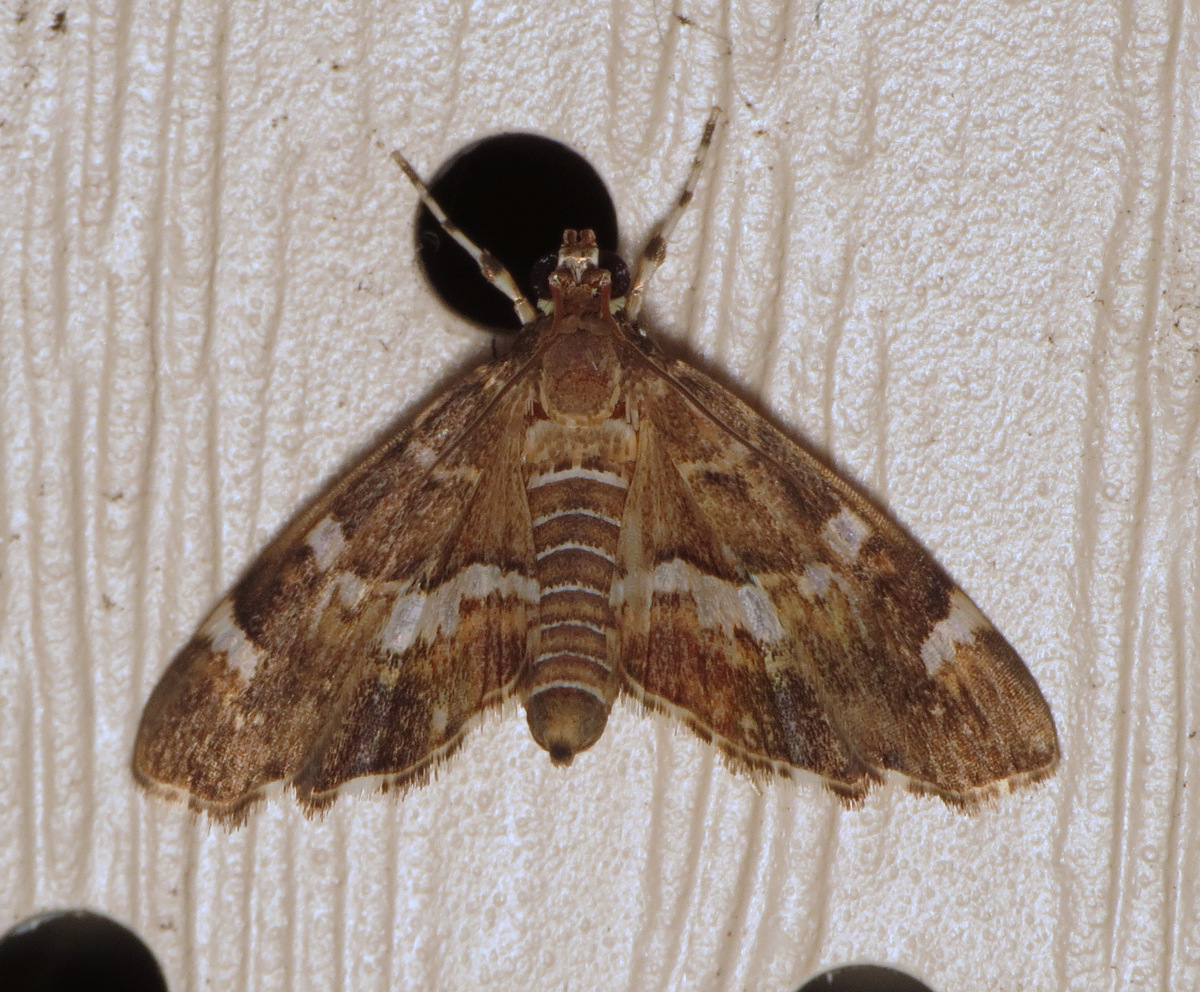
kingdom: Animalia
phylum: Arthropoda
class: Insecta
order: Lepidoptera
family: Crambidae
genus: Hymenia
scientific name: Hymenia perspectalis
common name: Spotted beet webworm
